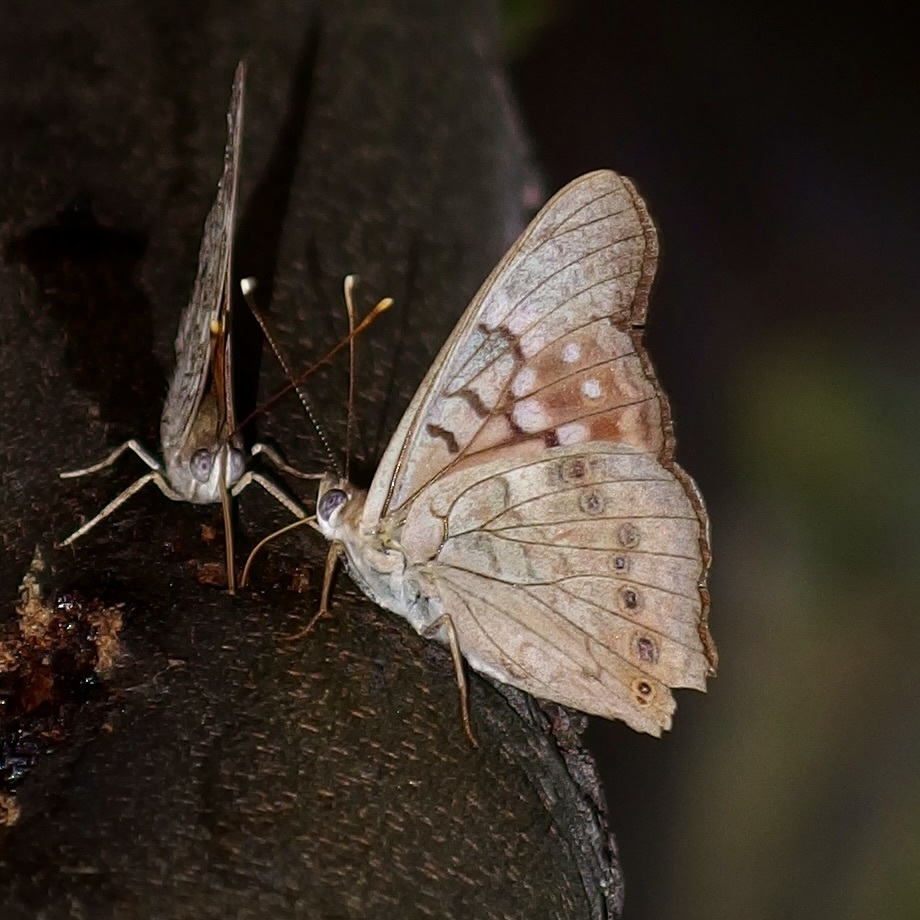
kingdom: Animalia
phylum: Arthropoda
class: Insecta
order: Lepidoptera
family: Nymphalidae
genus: Asterocampa
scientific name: Asterocampa clyton
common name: Tawny emperor
